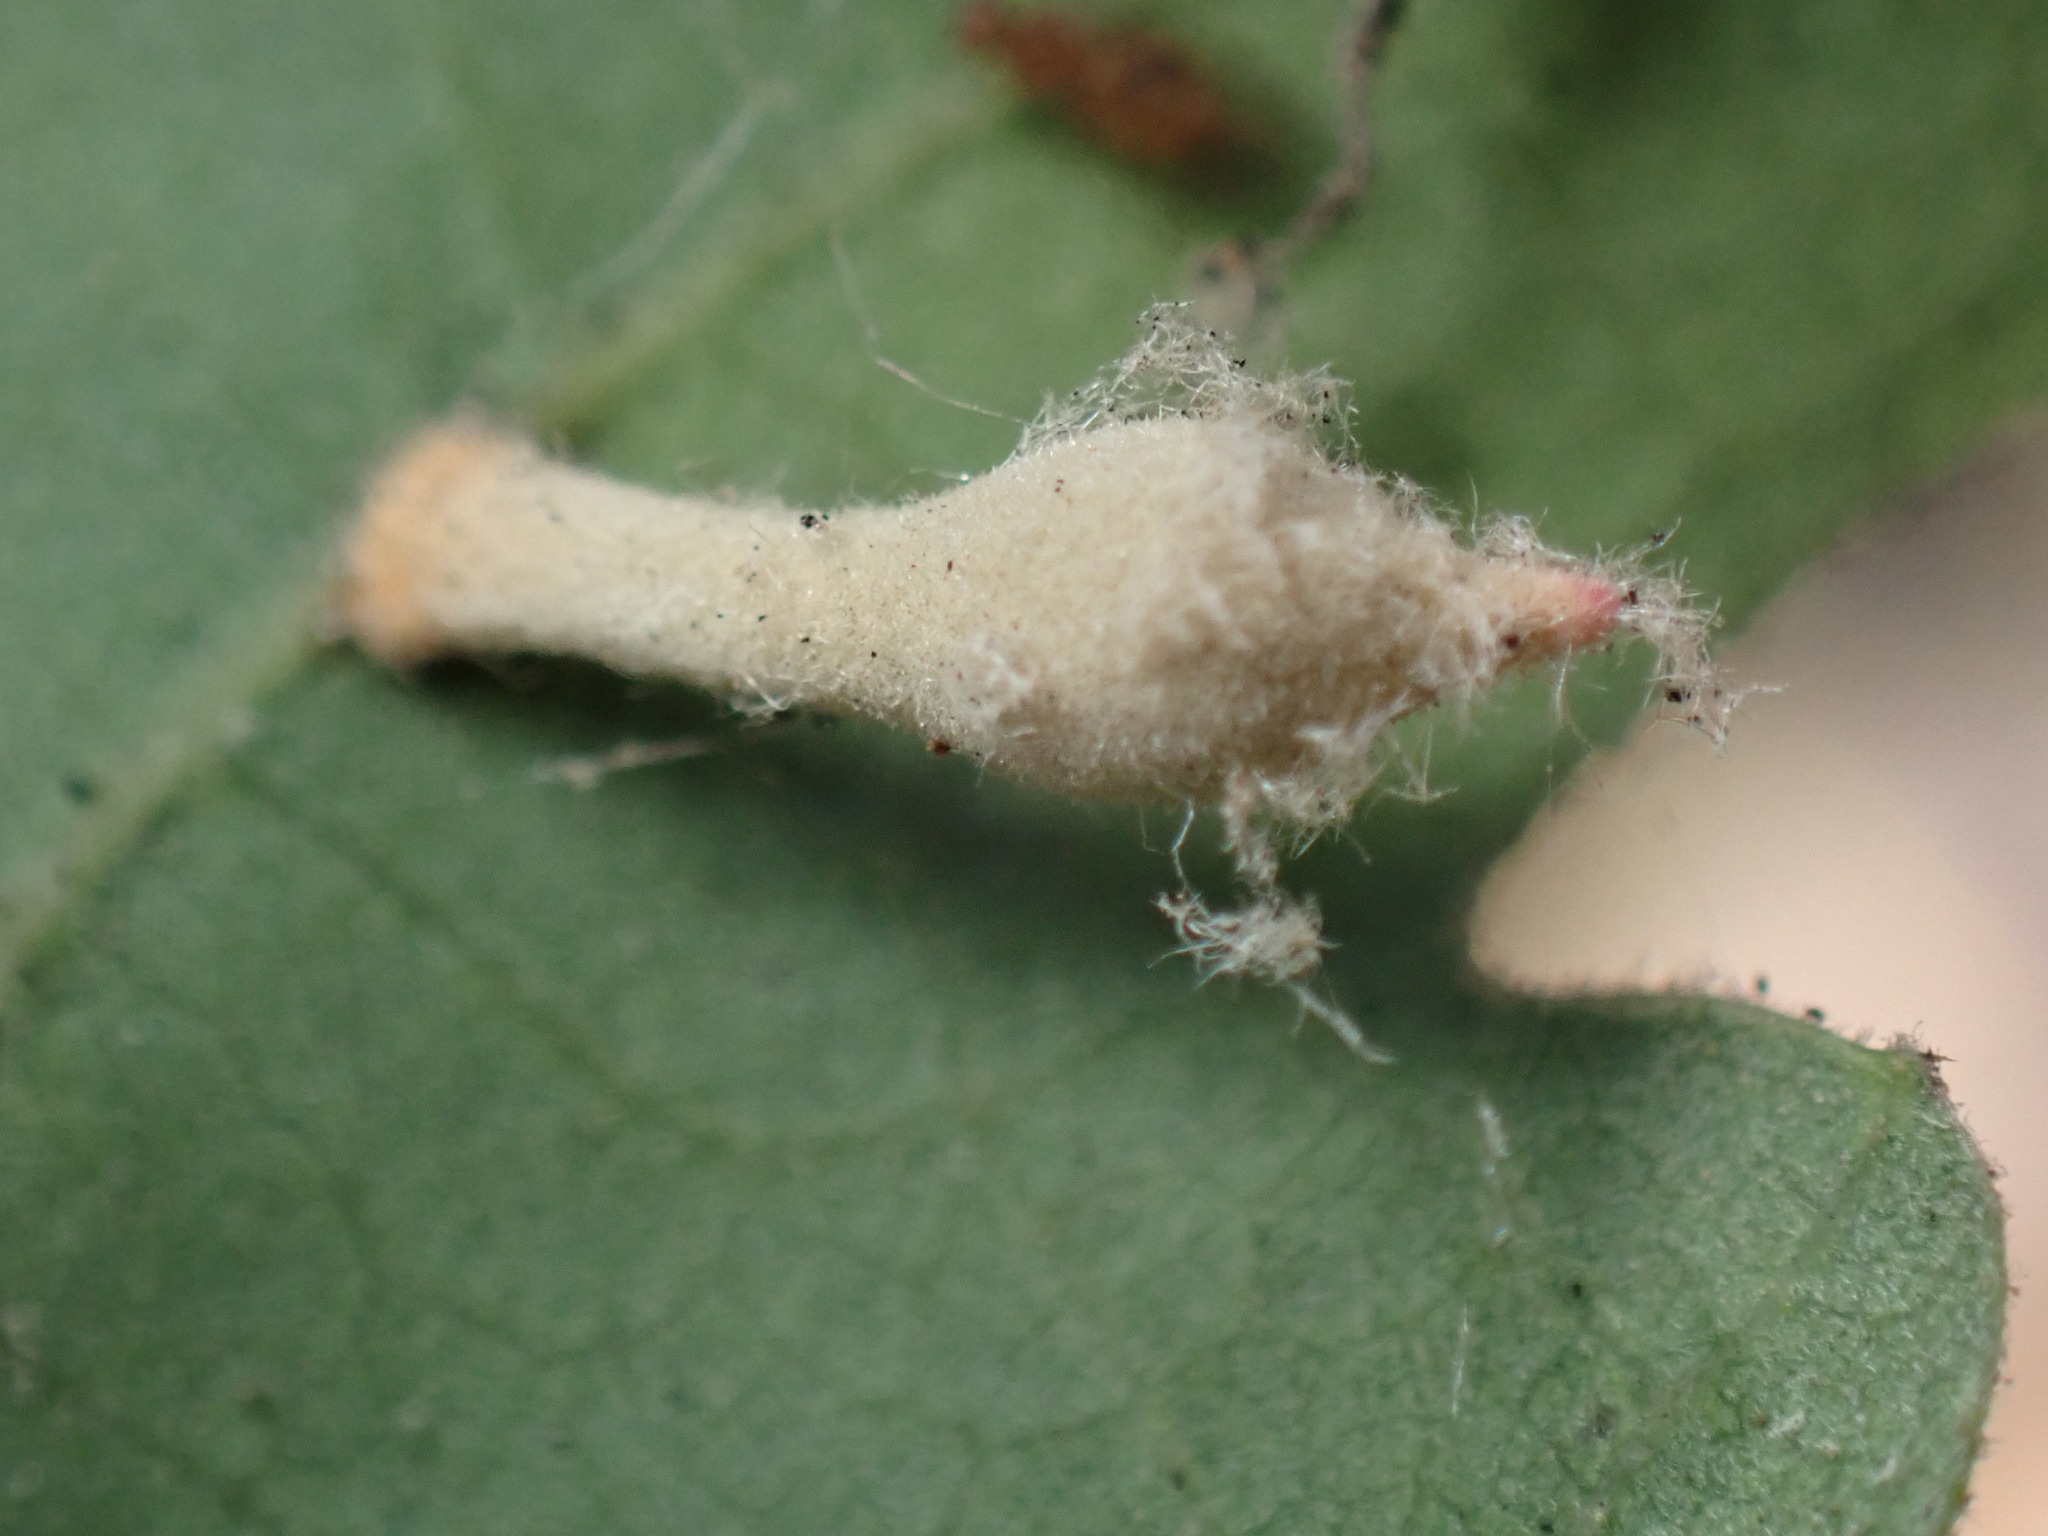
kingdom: Animalia
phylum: Arthropoda
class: Insecta
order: Hymenoptera
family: Cynipidae
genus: Atrusca
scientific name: Atrusca
